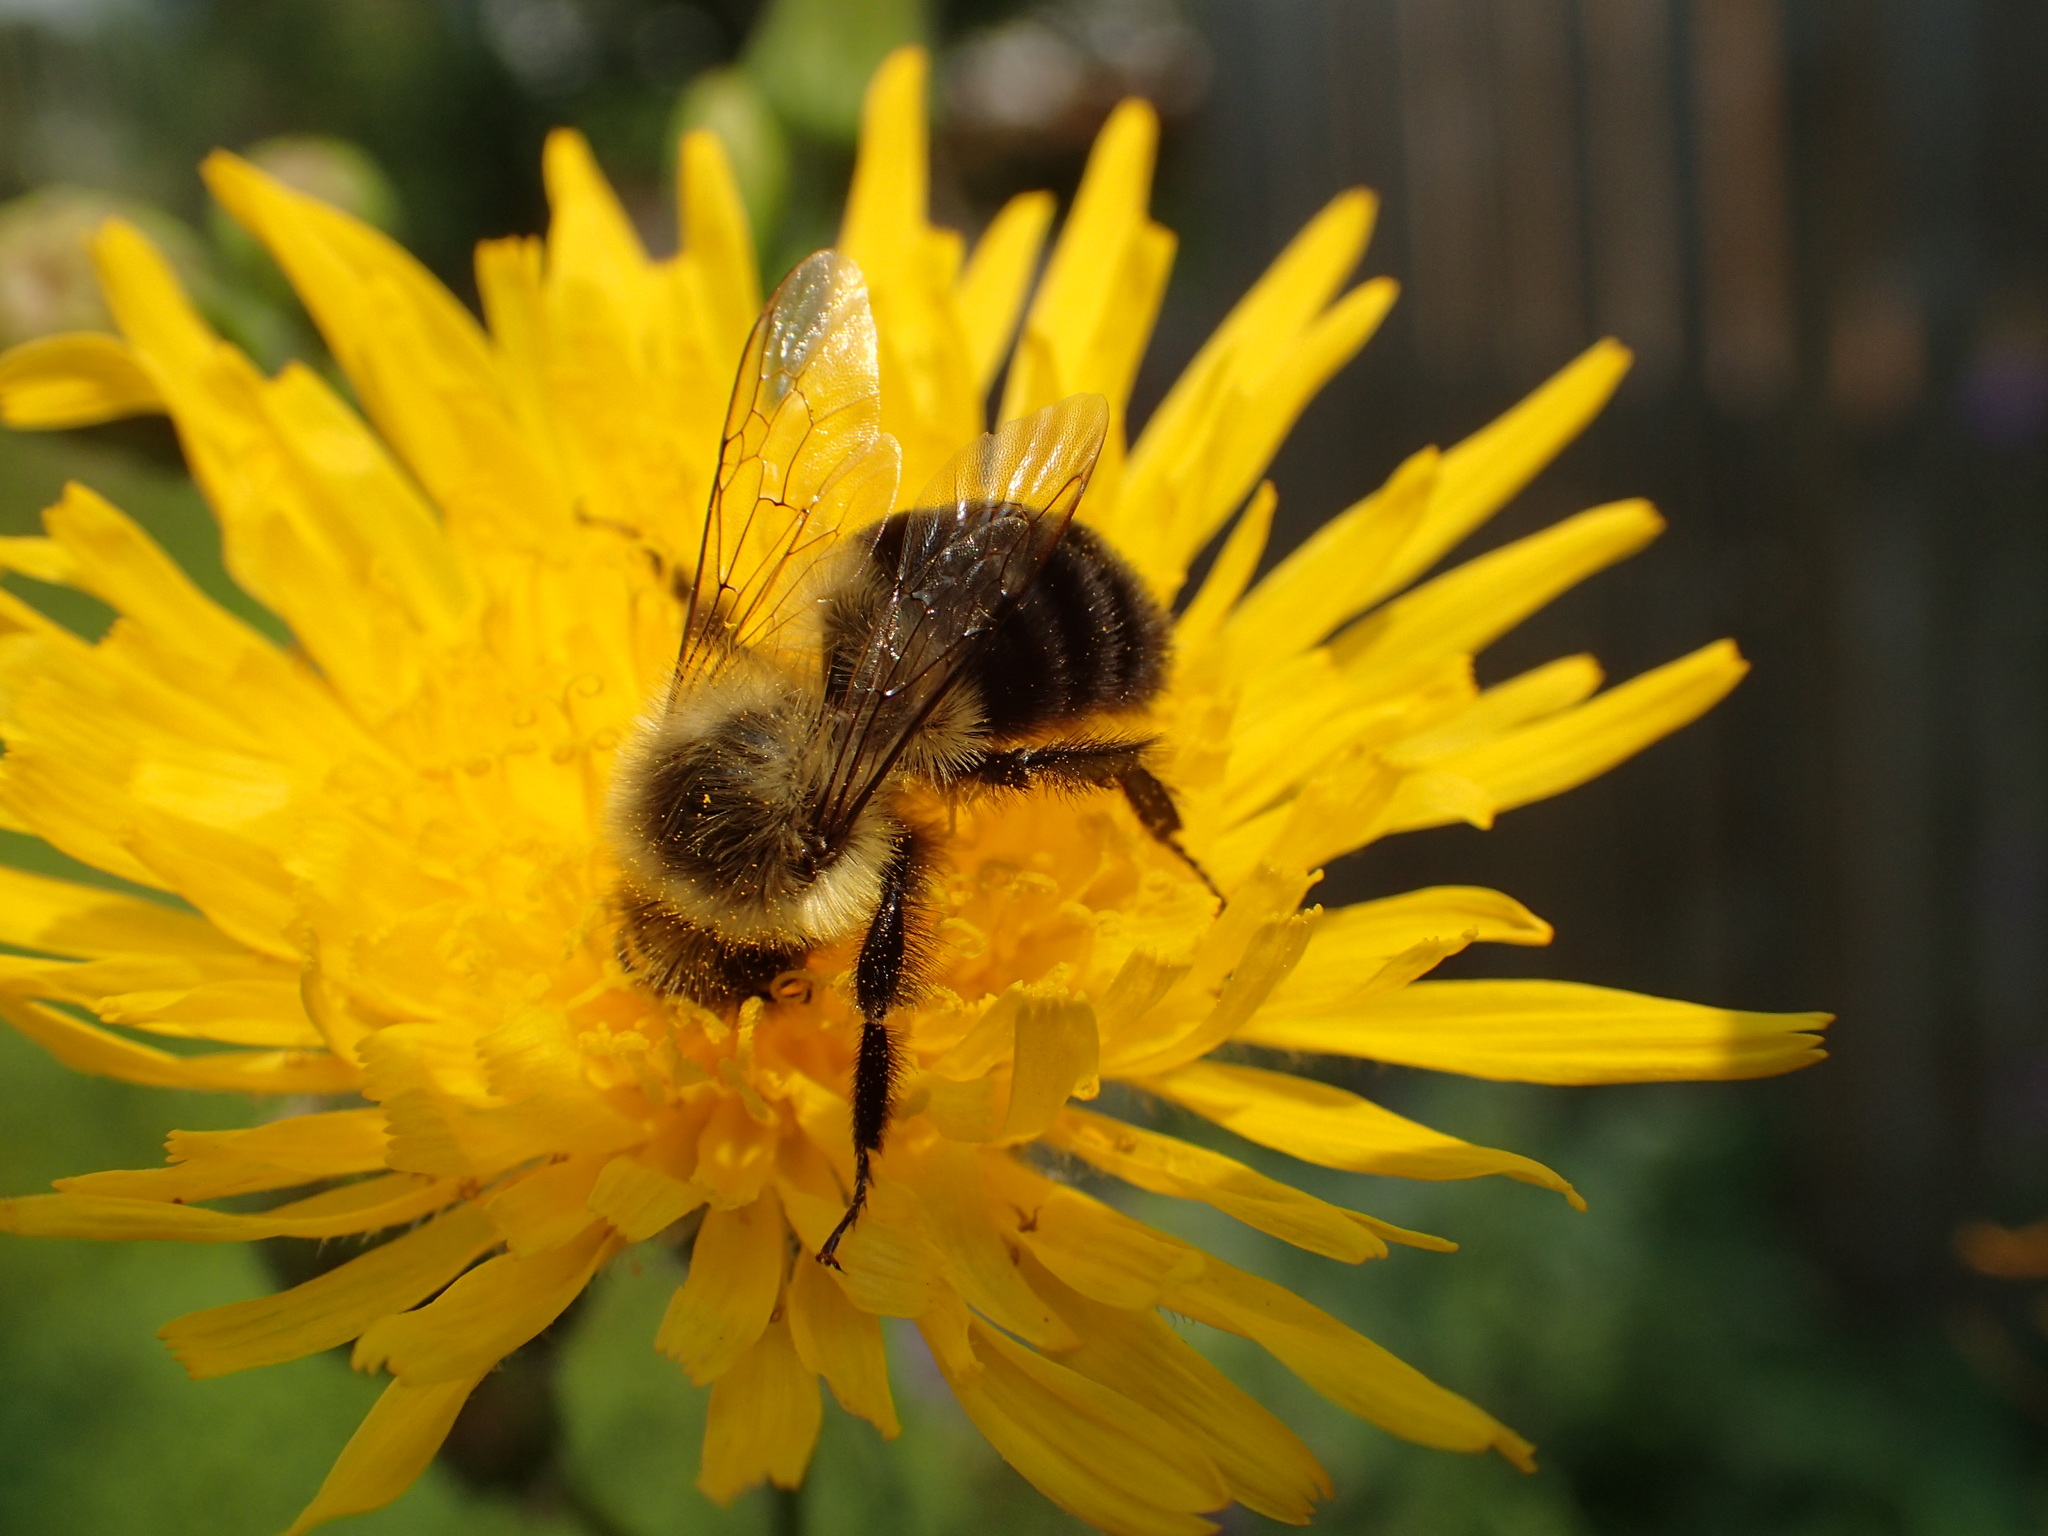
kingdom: Animalia
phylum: Arthropoda
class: Insecta
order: Hymenoptera
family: Apidae
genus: Bombus
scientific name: Bombus impatiens
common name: Common eastern bumble bee
